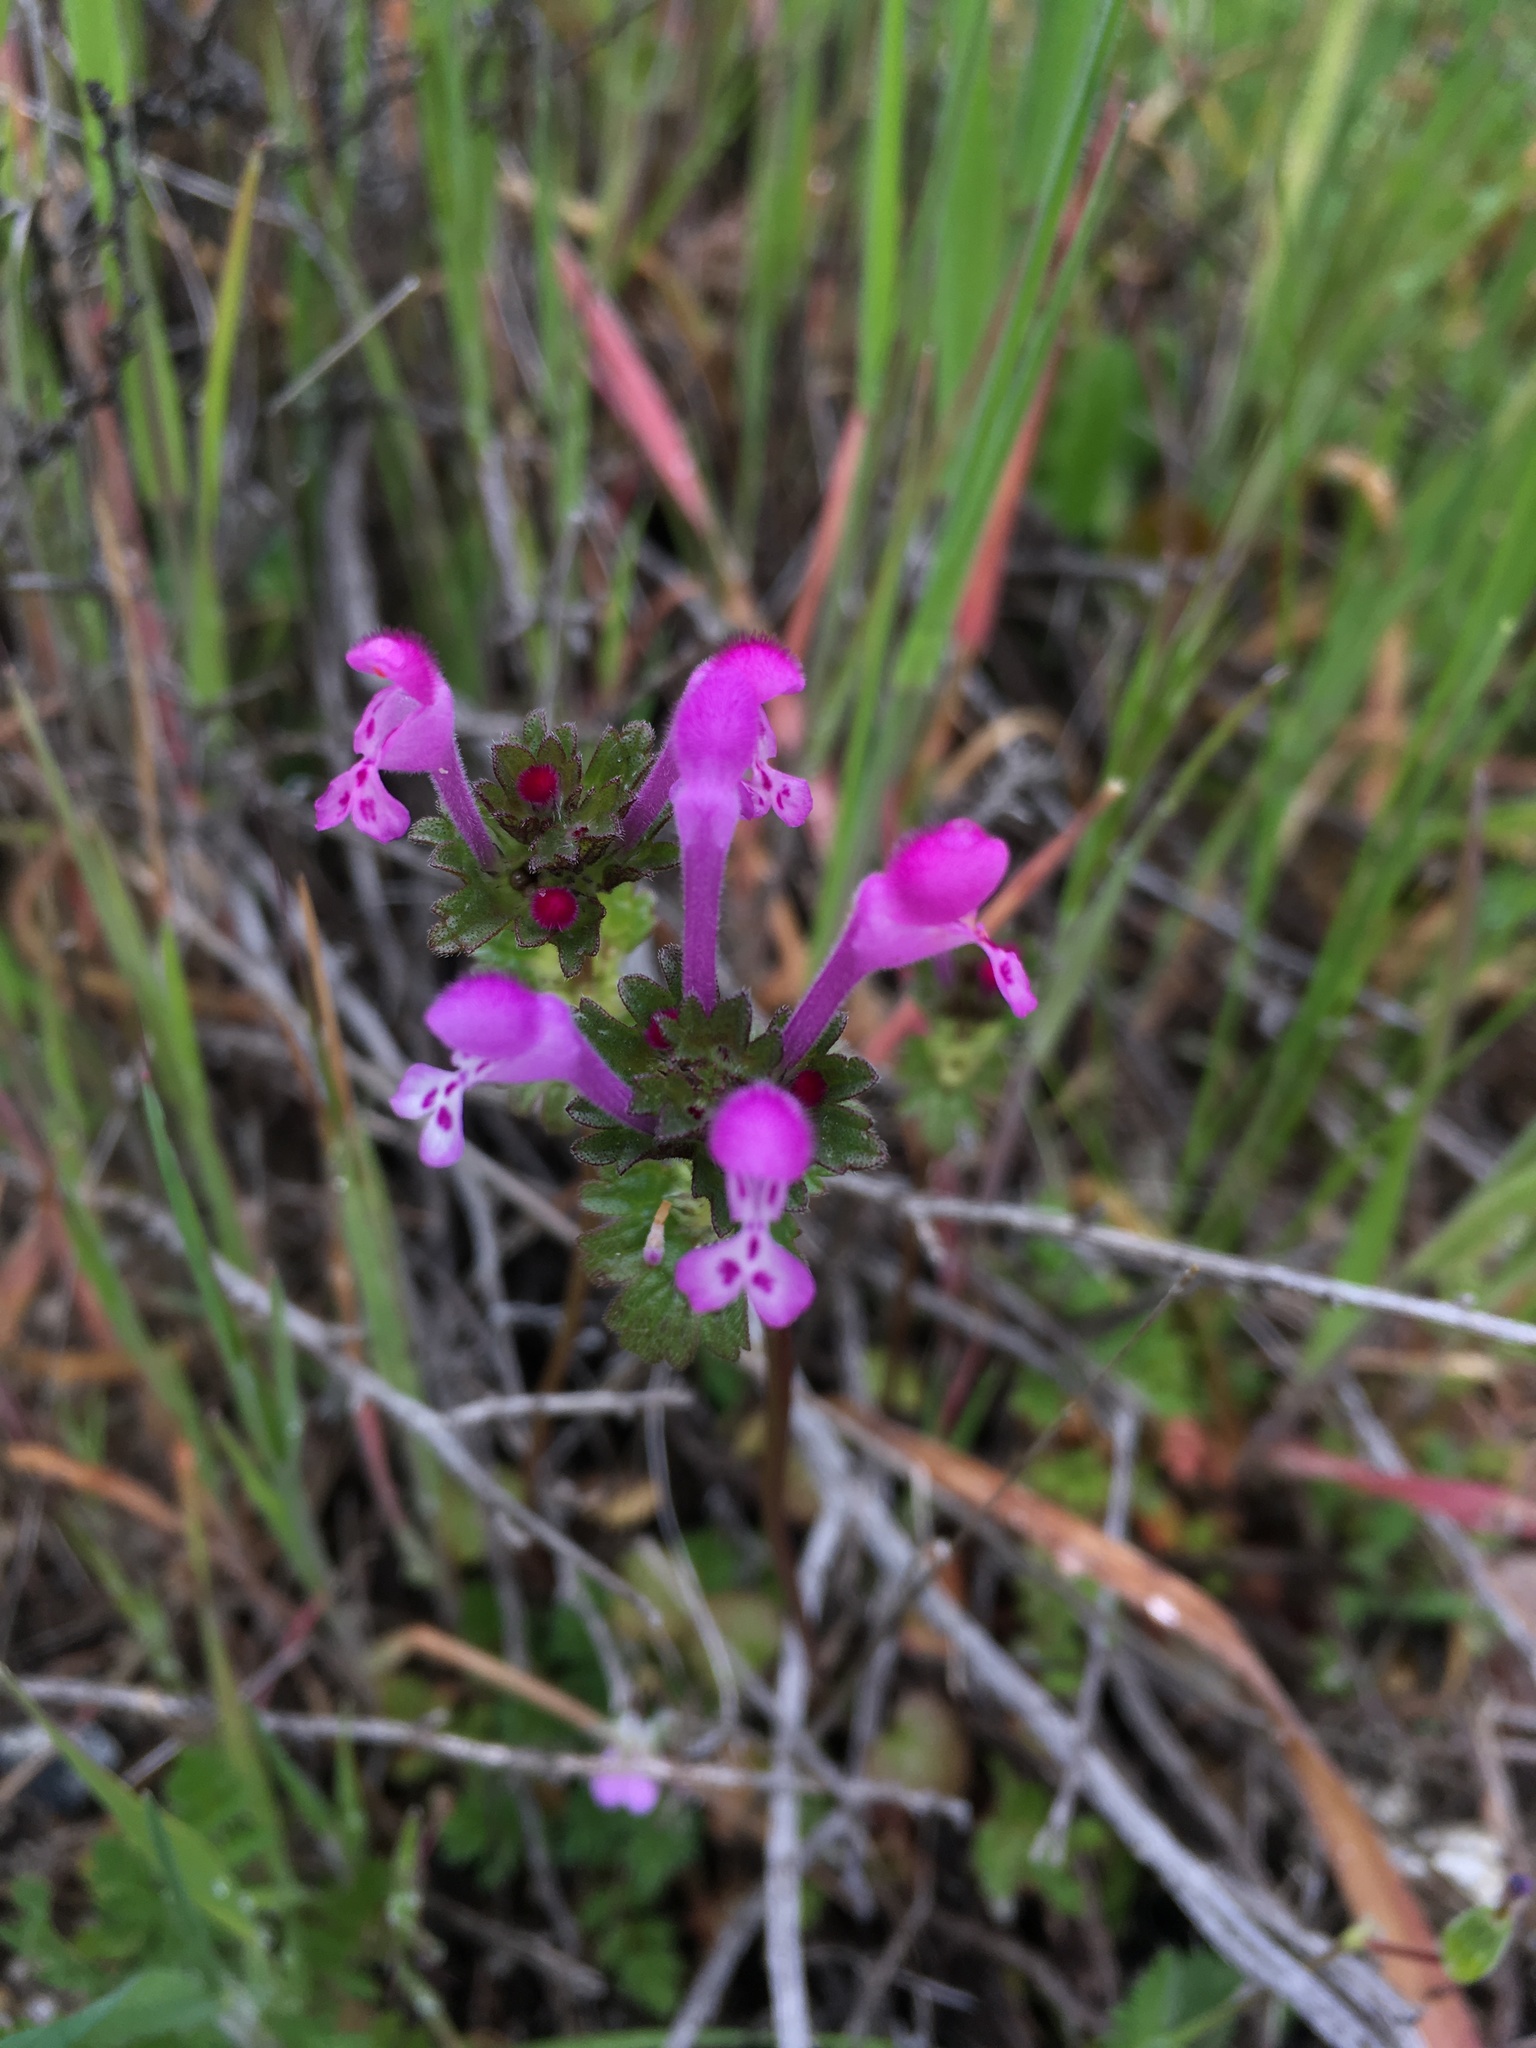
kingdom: Plantae
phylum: Tracheophyta
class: Magnoliopsida
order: Lamiales
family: Lamiaceae
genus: Lamium
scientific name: Lamium amplexicaule
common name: Henbit dead-nettle
